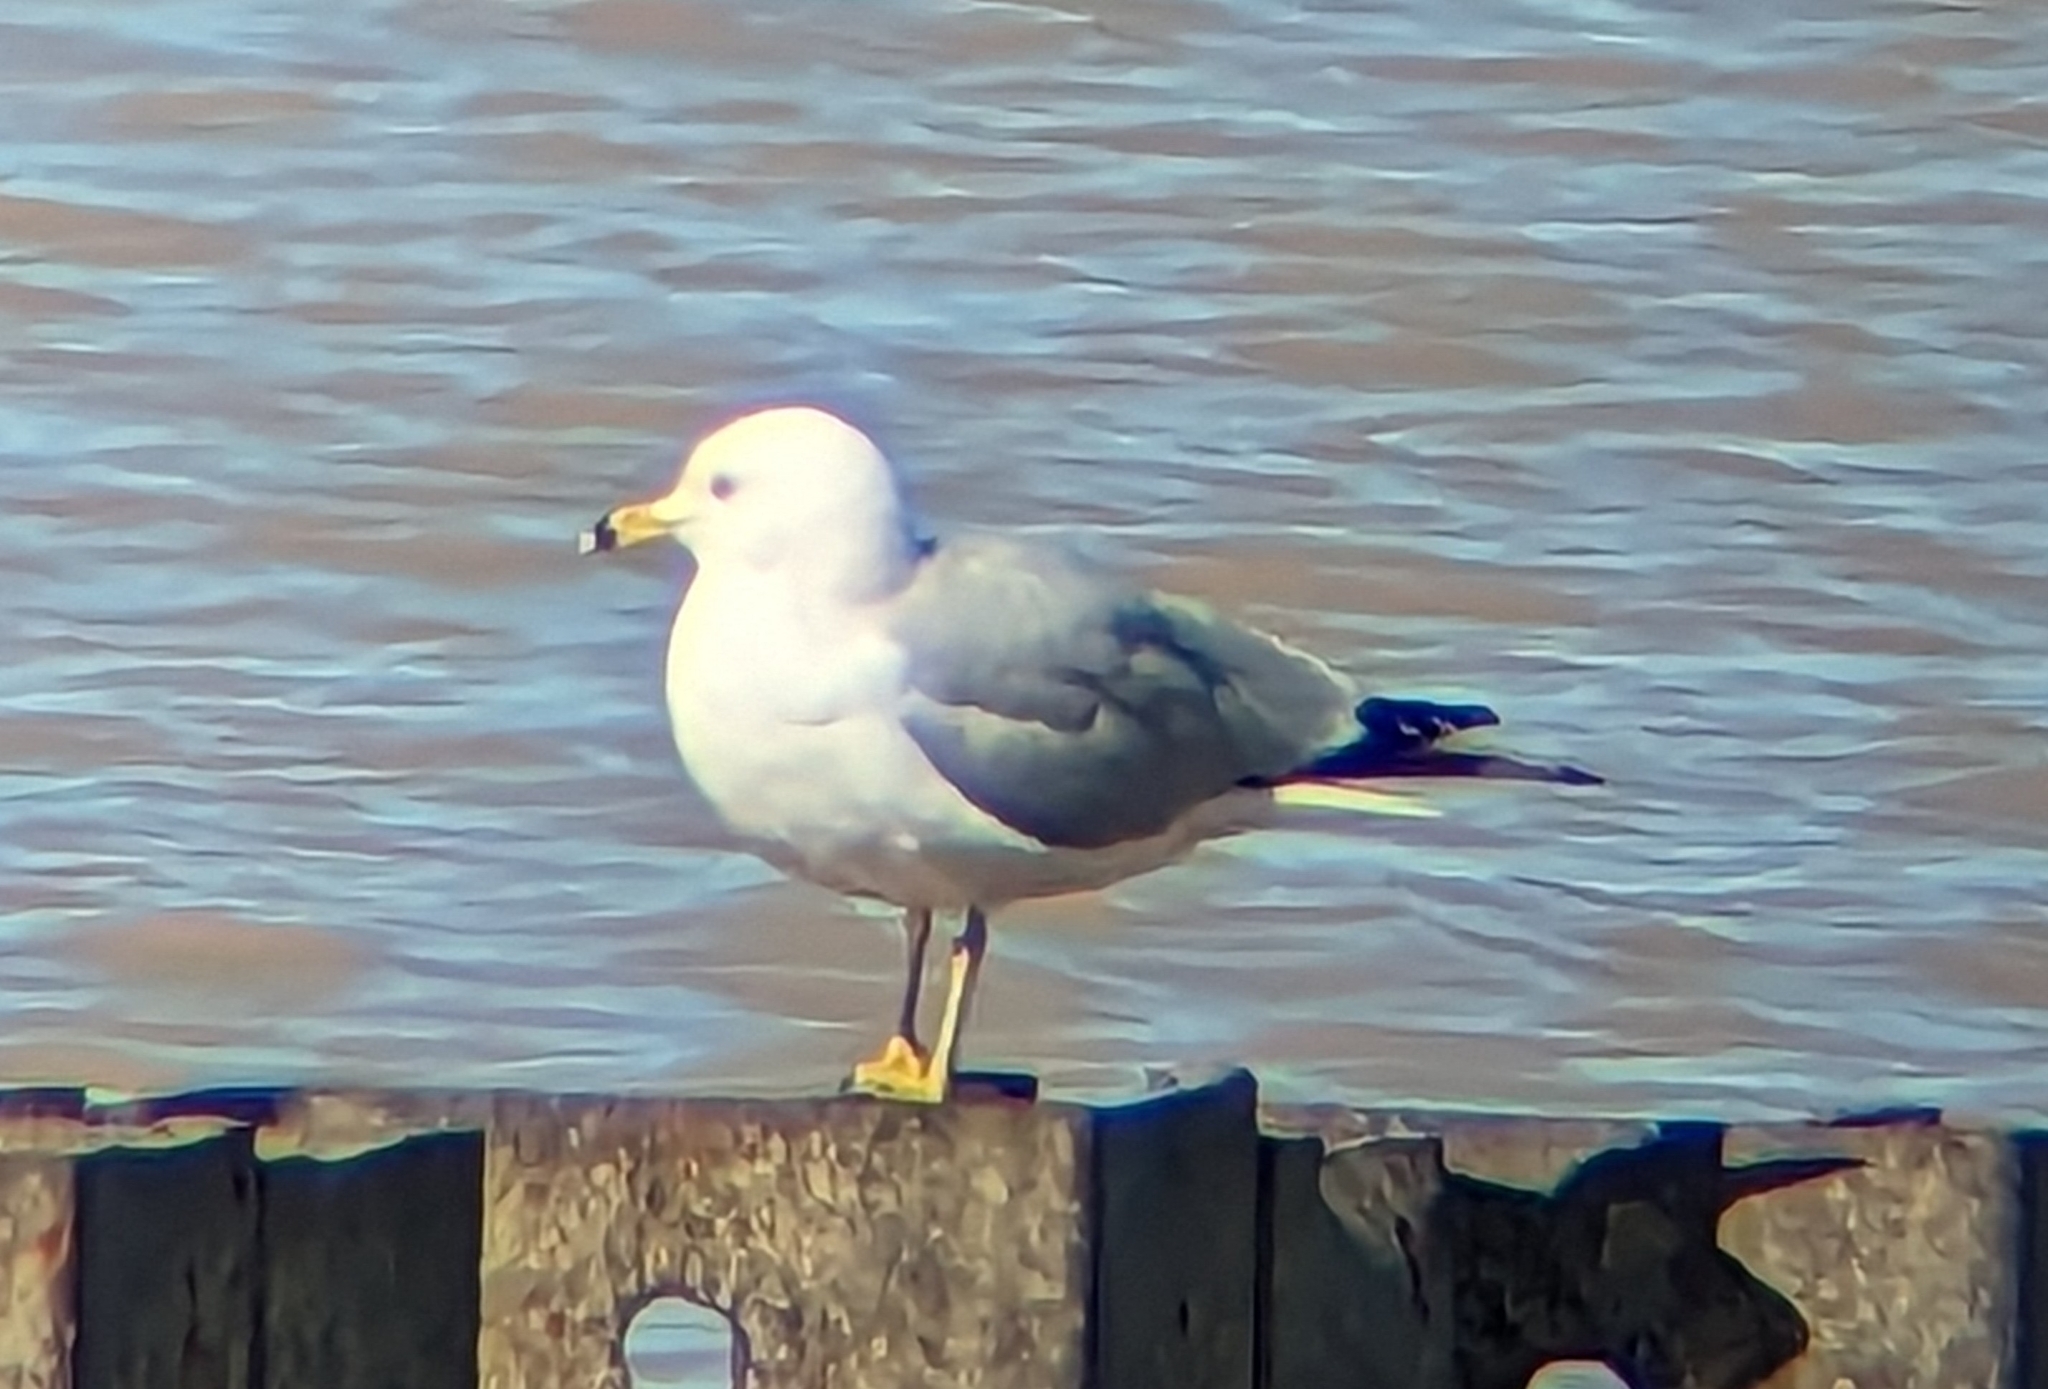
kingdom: Animalia
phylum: Chordata
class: Aves
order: Charadriiformes
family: Laridae
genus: Larus
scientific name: Larus delawarensis
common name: Ring-billed gull
